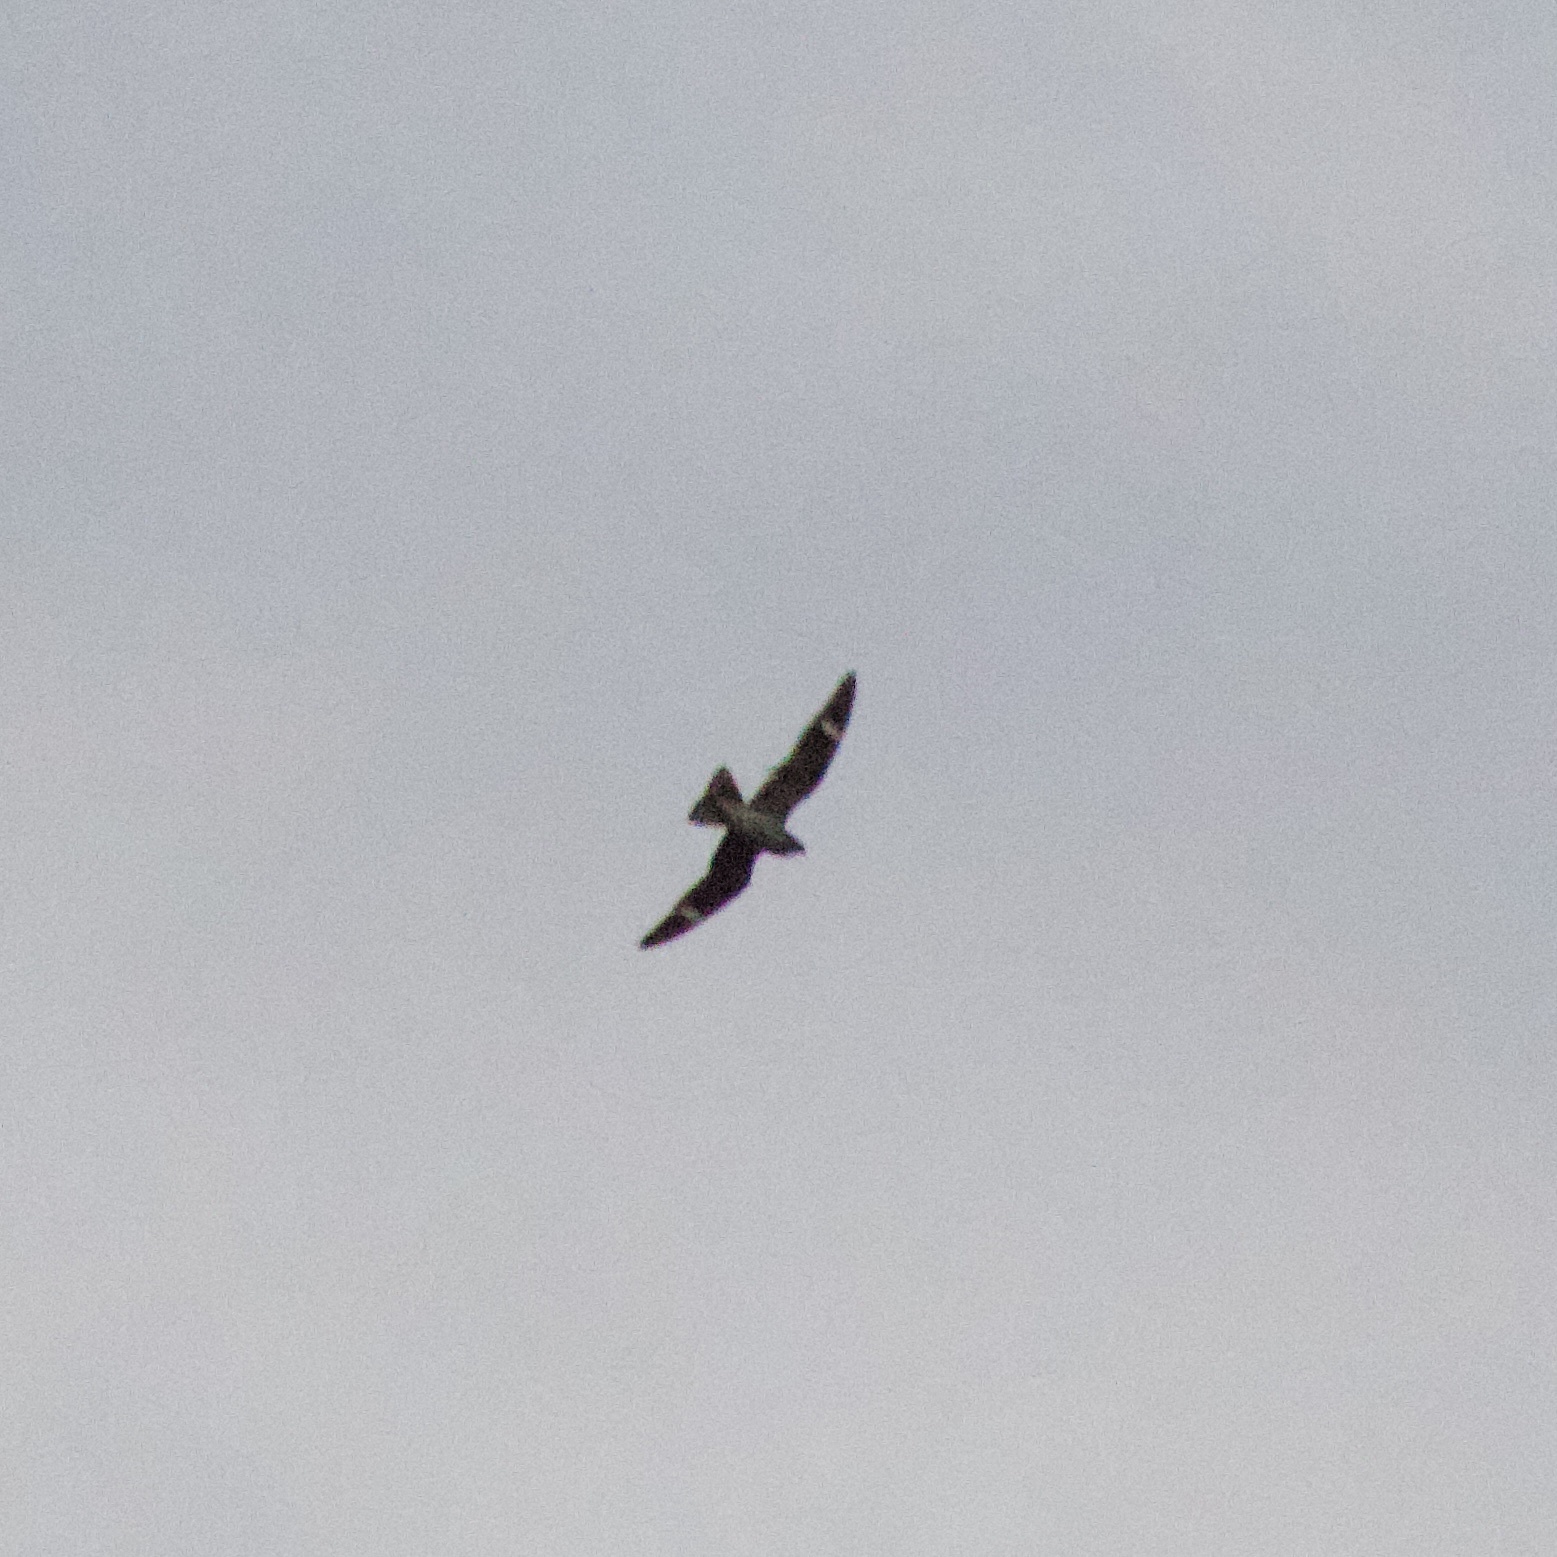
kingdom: Animalia
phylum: Chordata
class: Aves
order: Caprimulgiformes
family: Caprimulgidae
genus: Chordeiles
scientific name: Chordeiles minor
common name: Common nighthawk
